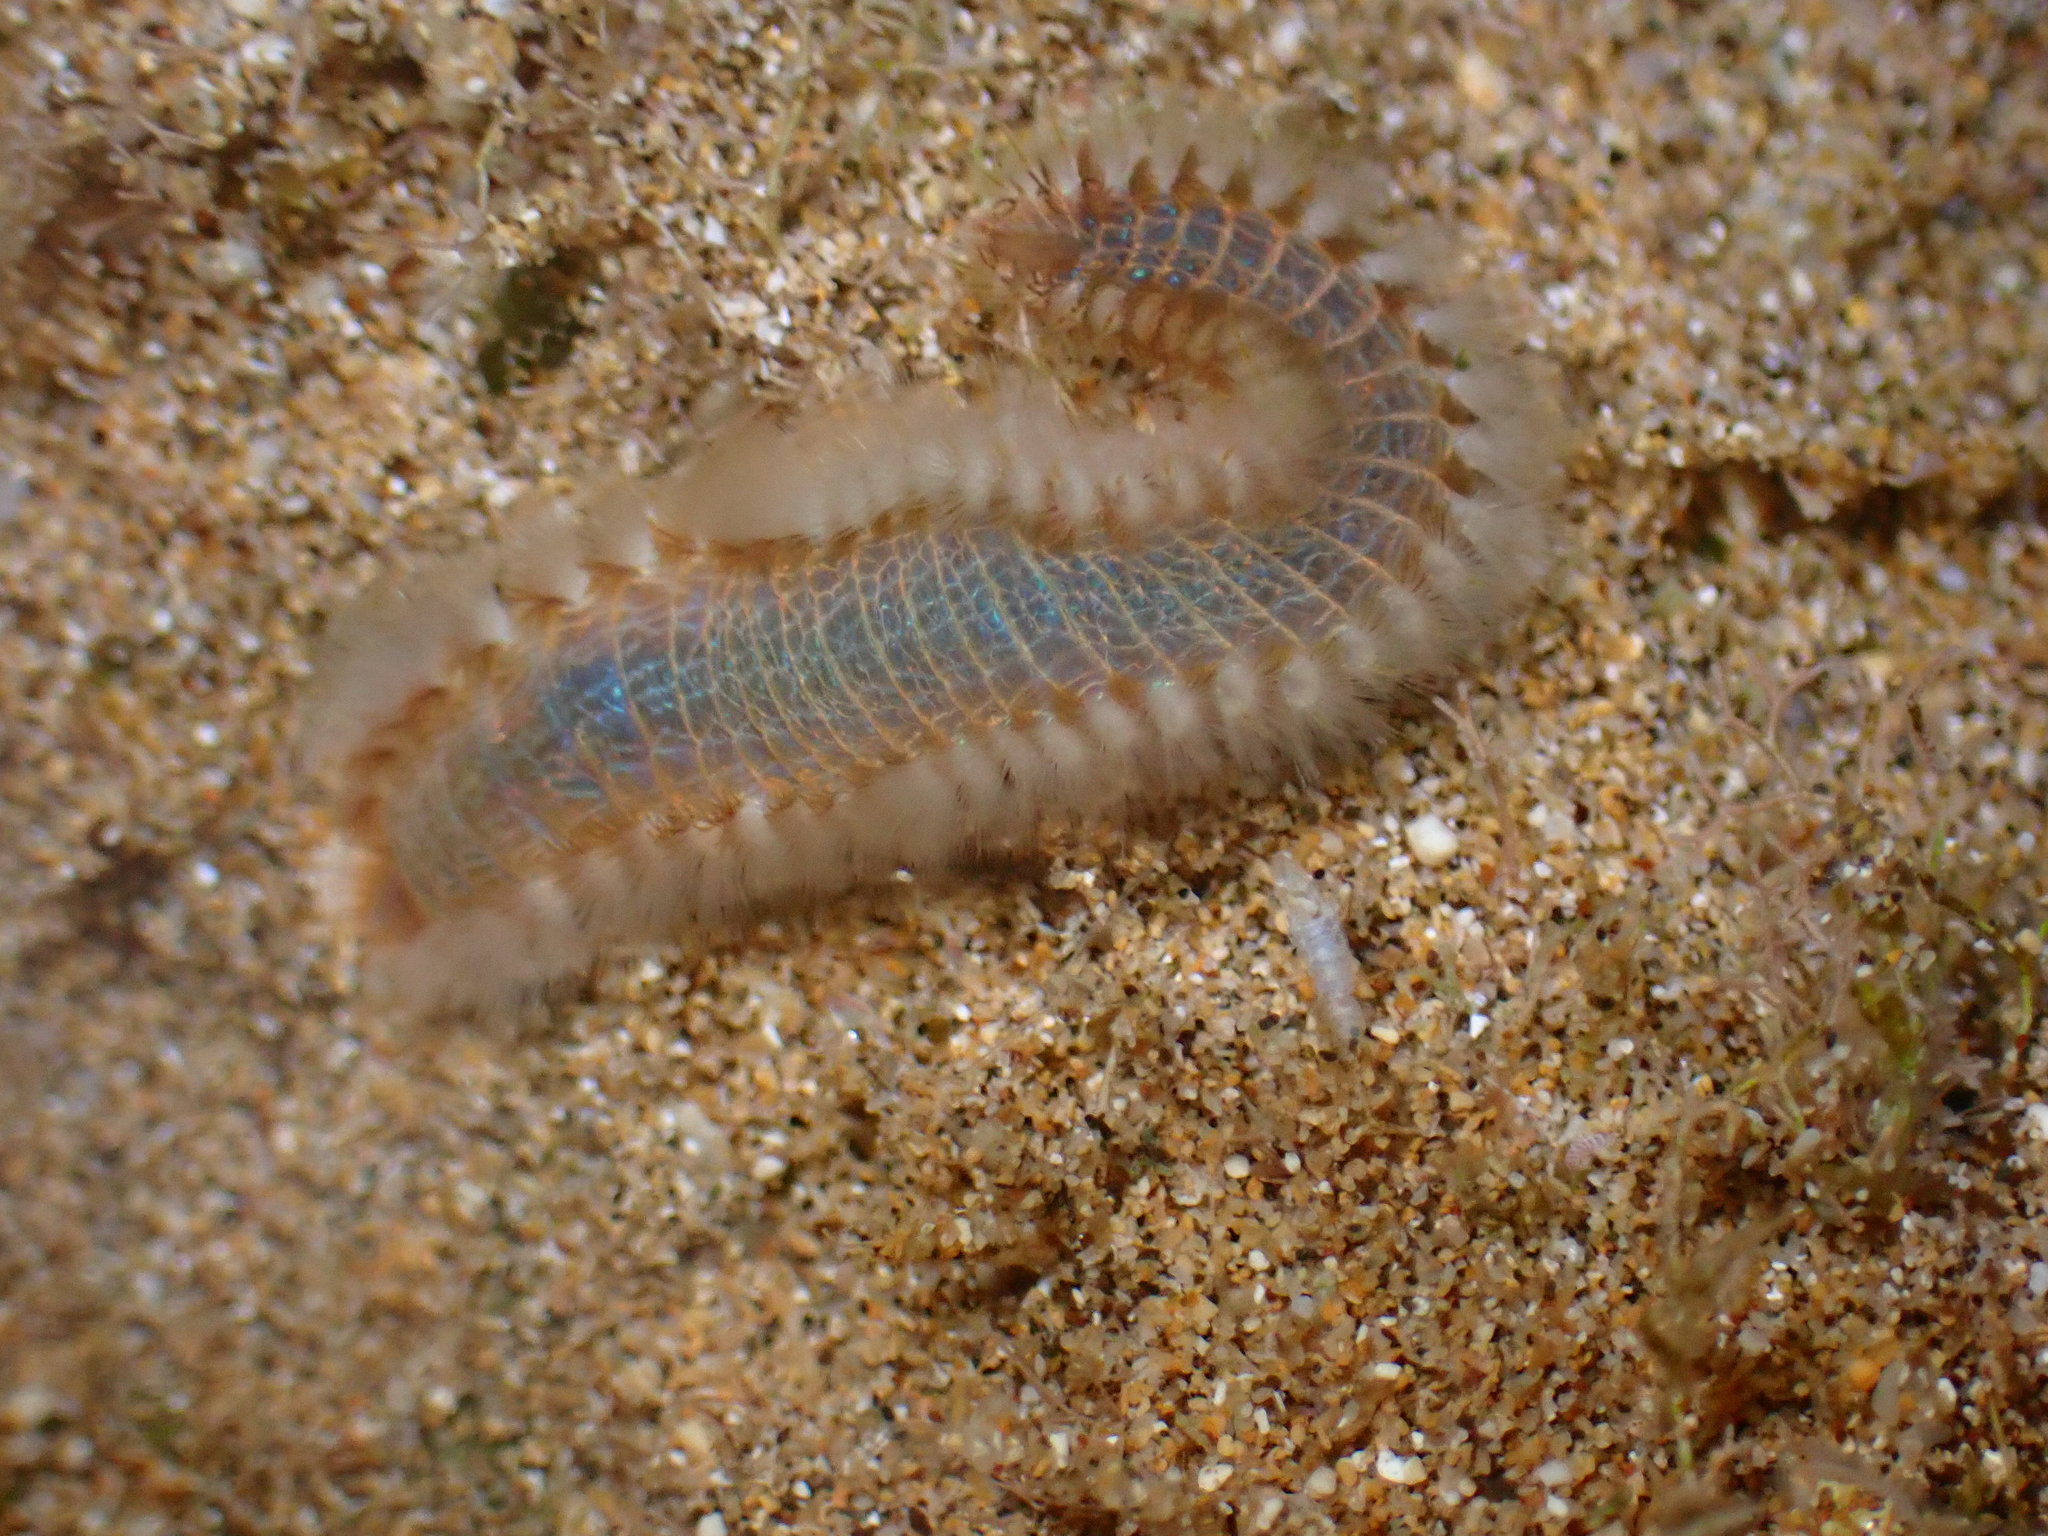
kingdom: Animalia
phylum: Annelida
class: Polychaeta
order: Amphinomida
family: Amphinomidae
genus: Eurythoe
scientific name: Eurythoe complanata
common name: Fireworm
